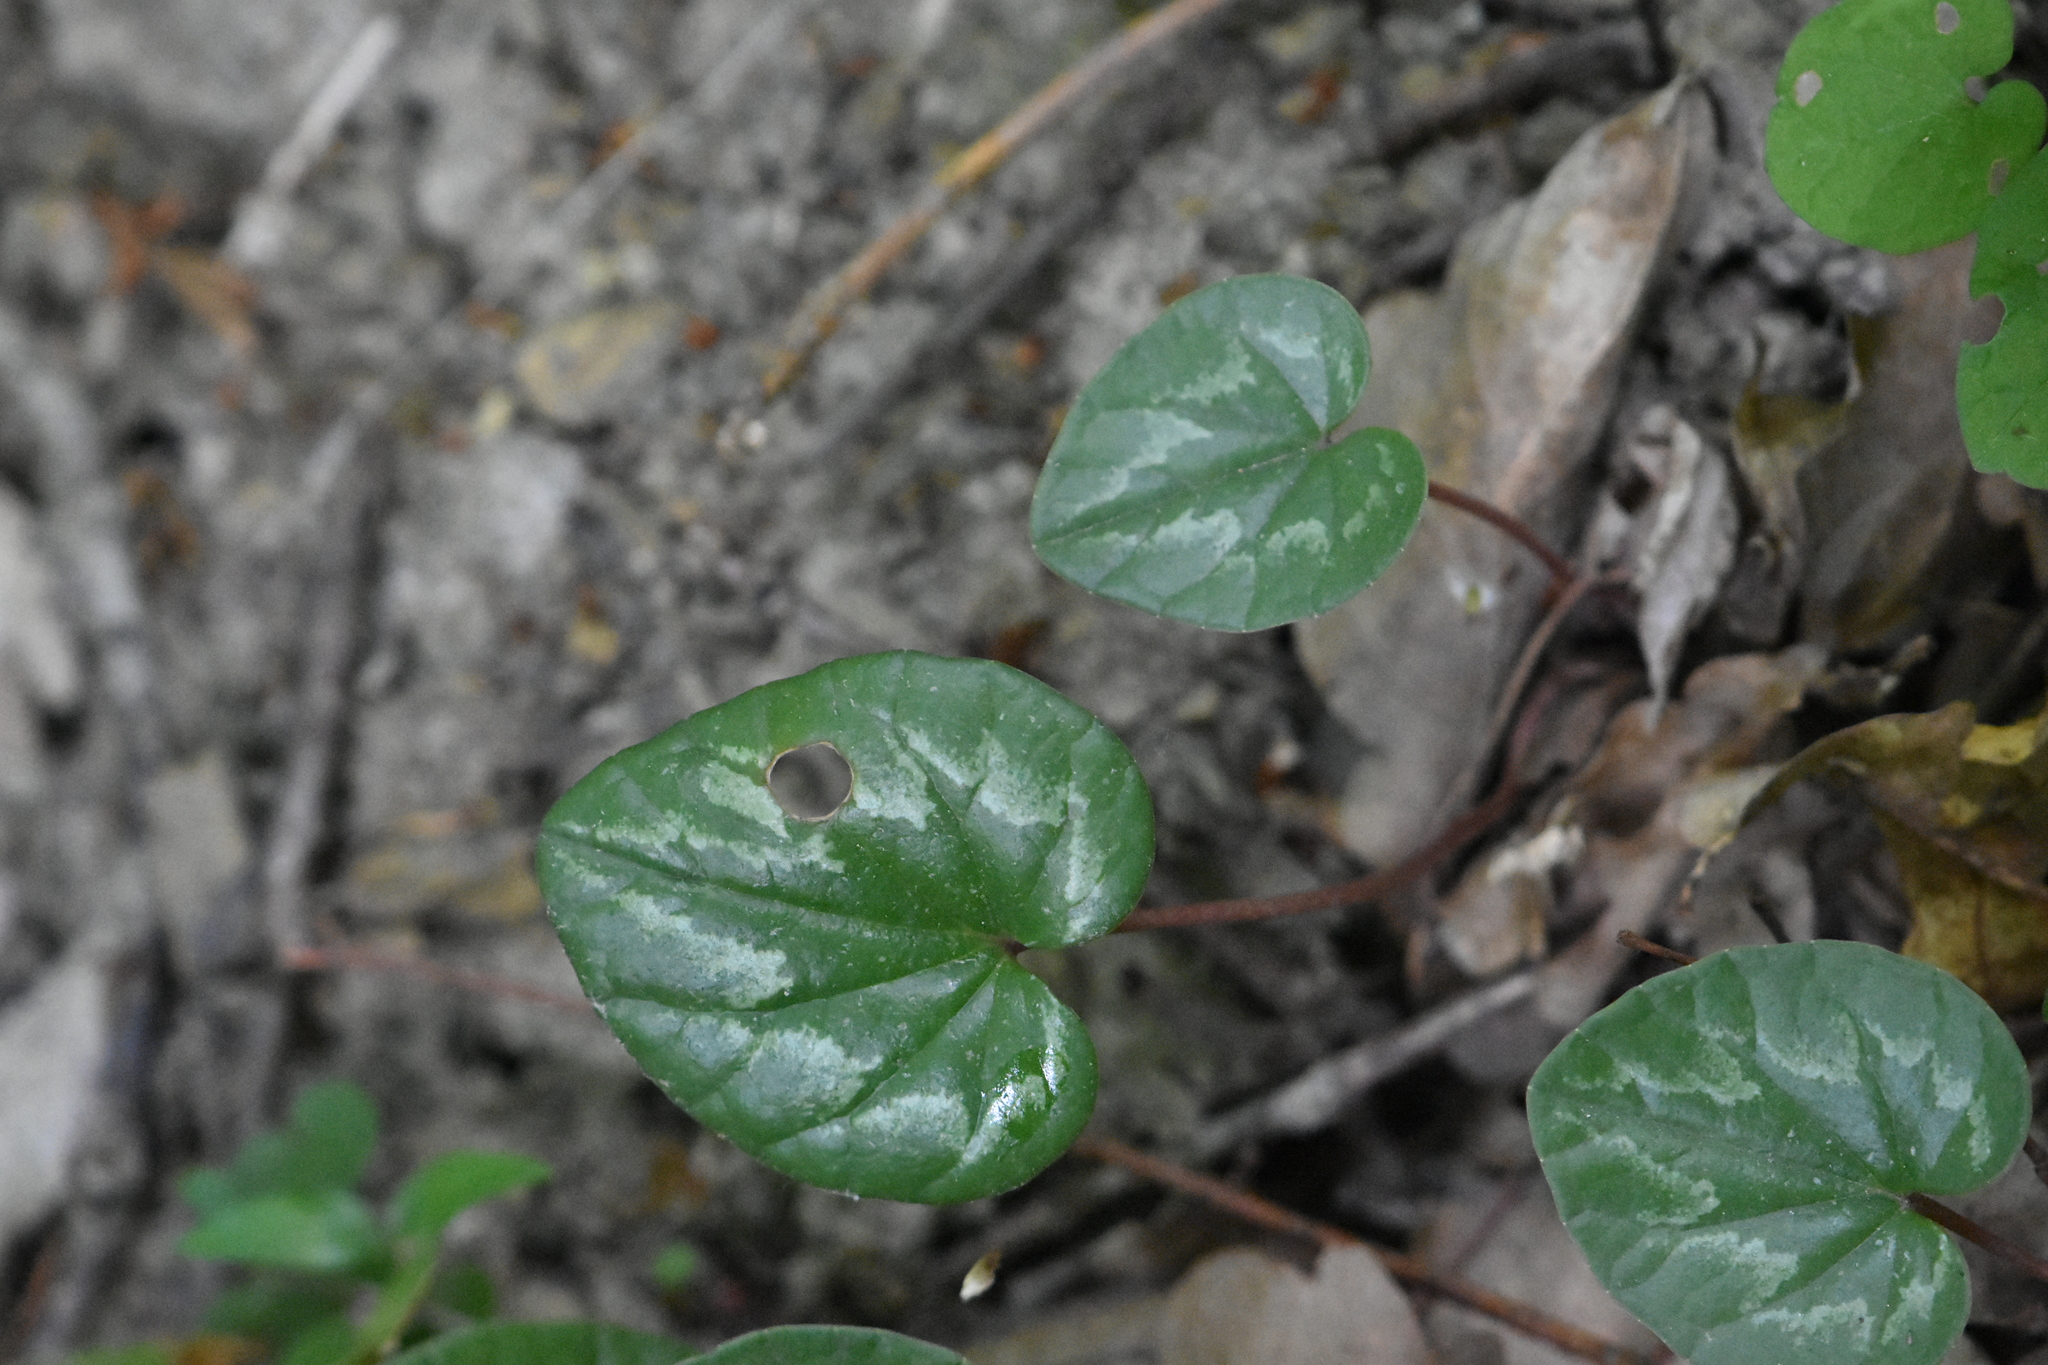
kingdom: Plantae
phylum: Tracheophyta
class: Magnoliopsida
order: Ericales
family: Primulaceae
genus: Cyclamen
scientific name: Cyclamen coum
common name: Eastern sowbread
